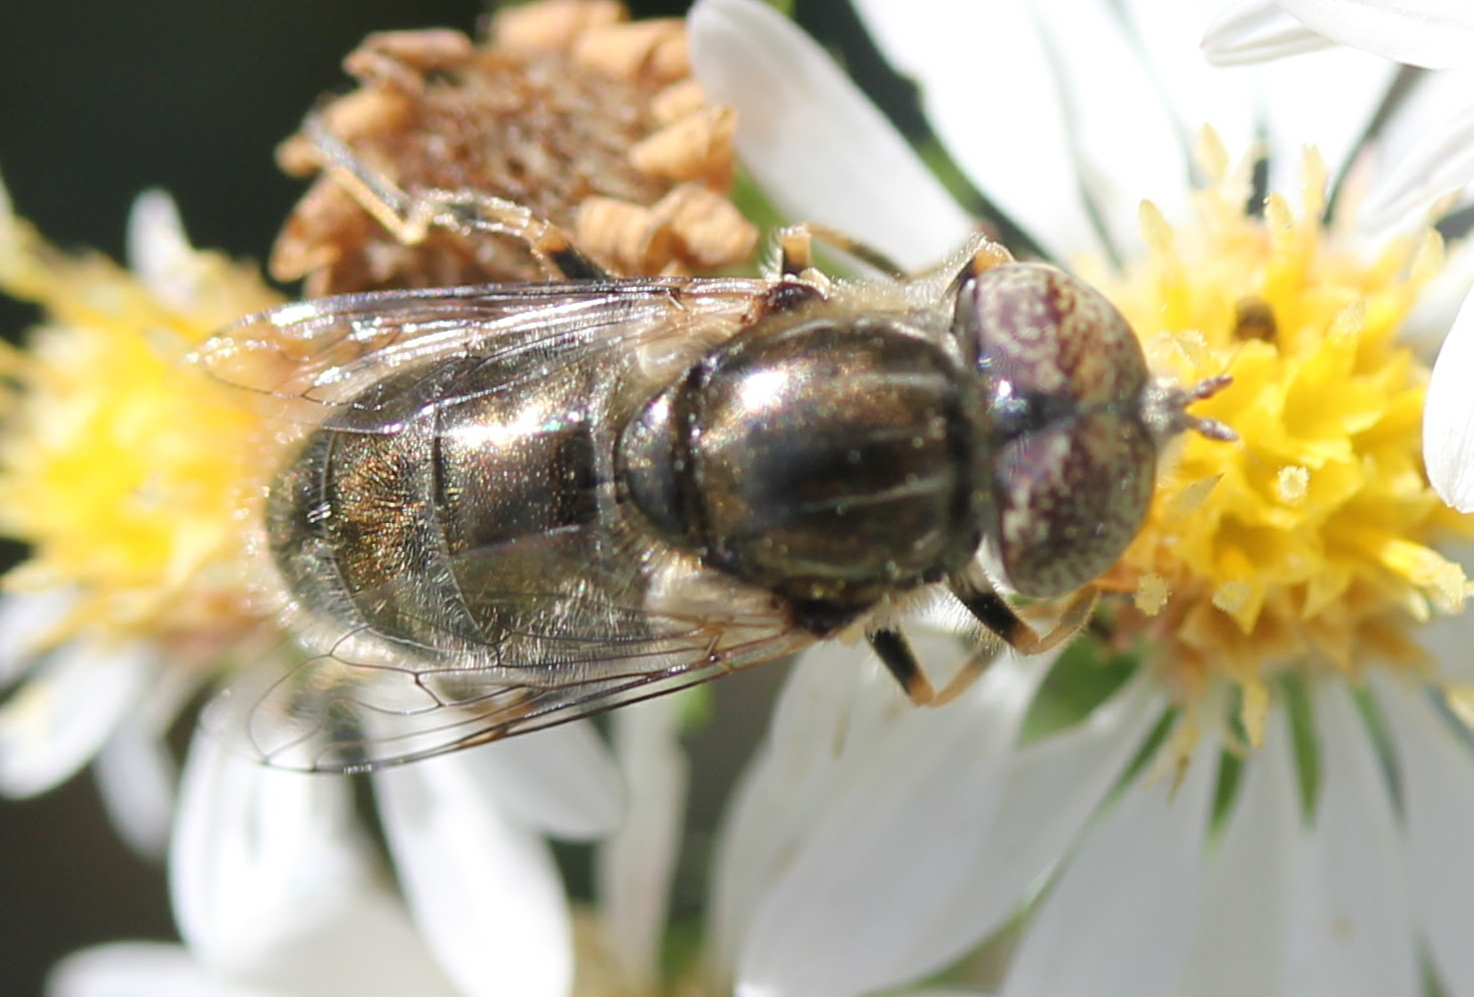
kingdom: Animalia
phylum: Arthropoda
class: Insecta
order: Diptera
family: Syrphidae
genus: Eristalinus
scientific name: Eristalinus aeneus
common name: Syrphid fly
